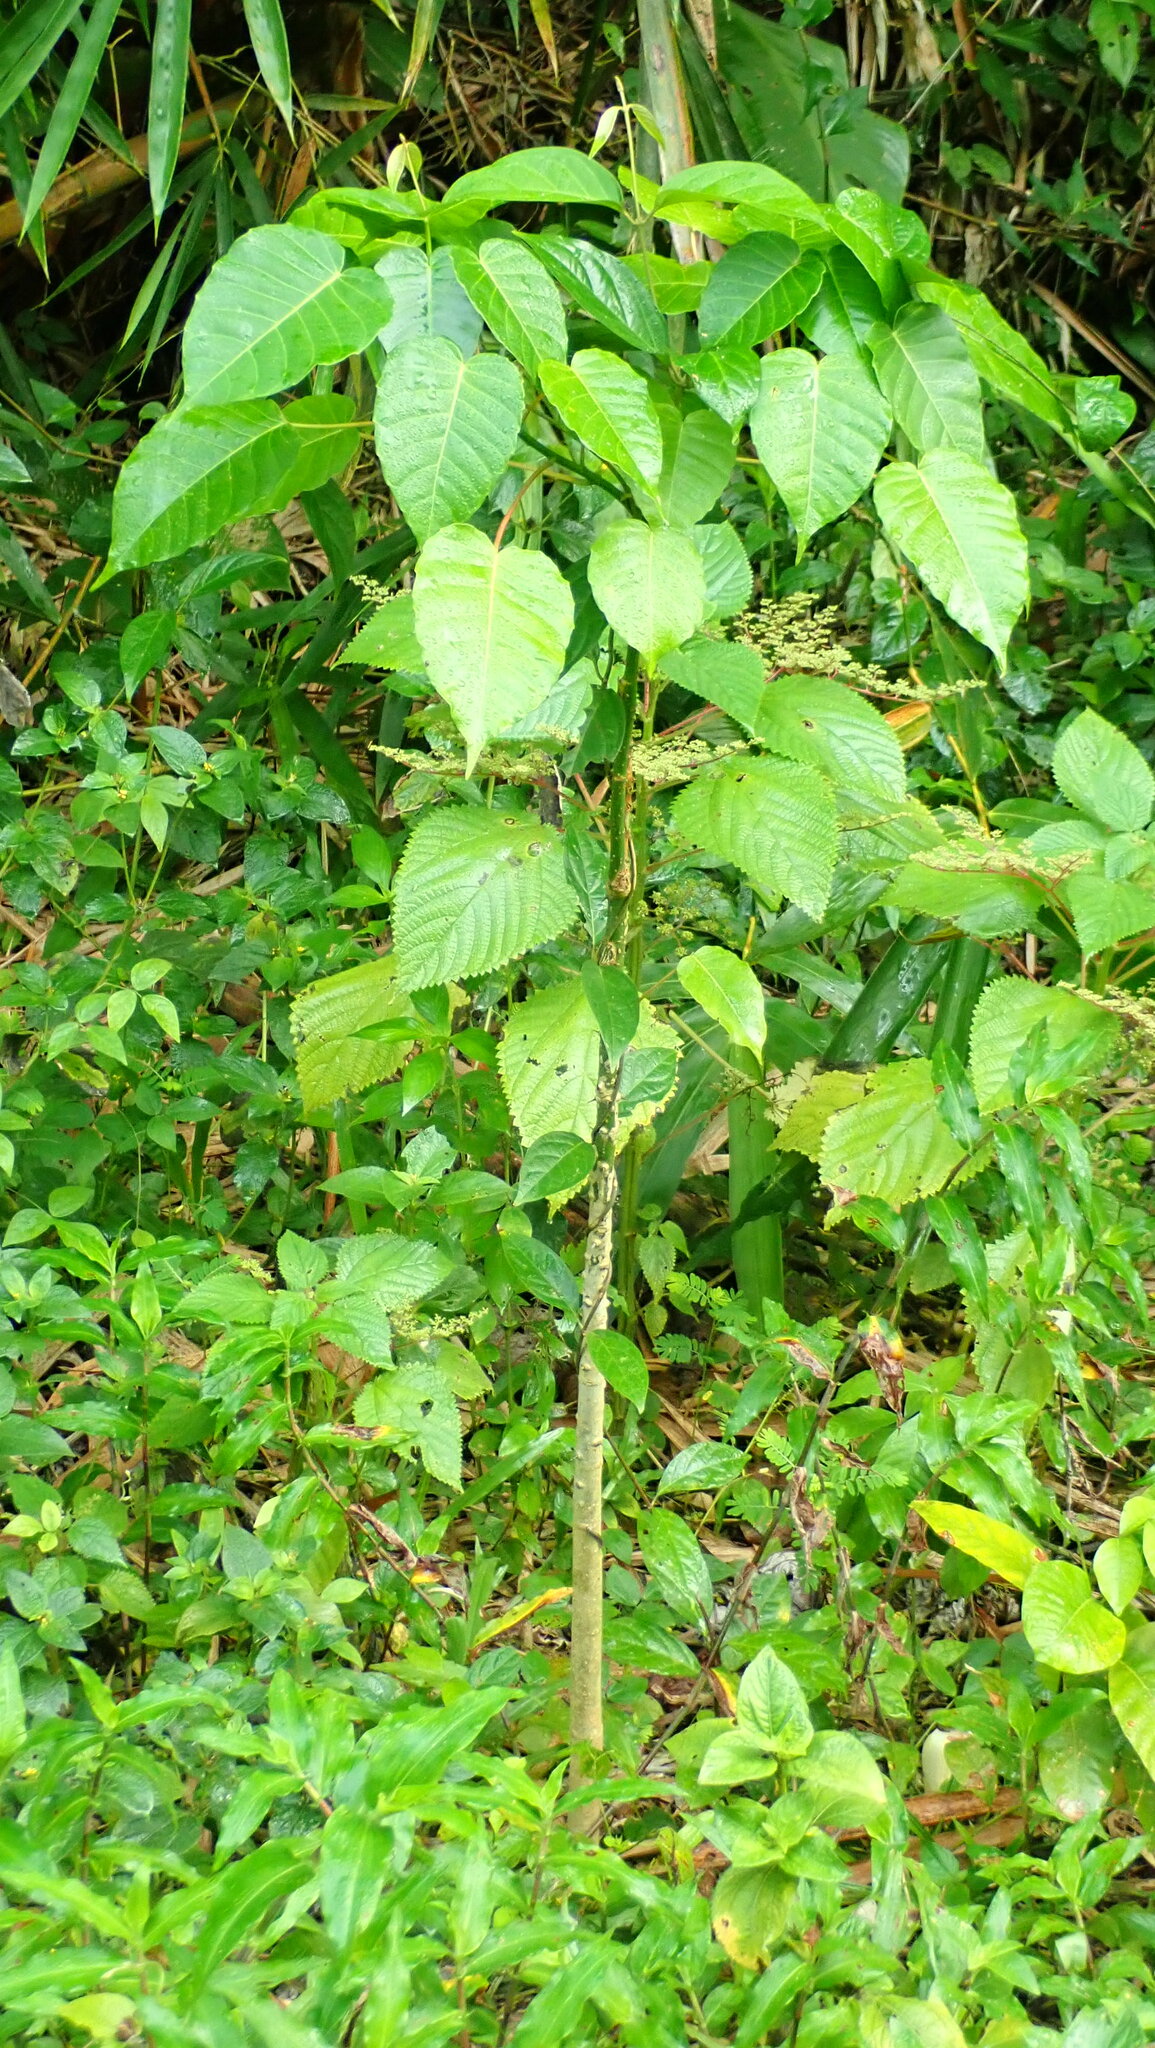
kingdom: Plantae
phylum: Tracheophyta
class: Magnoliopsida
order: Malpighiales
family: Euphorbiaceae
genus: Hura
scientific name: Hura crepitans
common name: Sandboxtree
